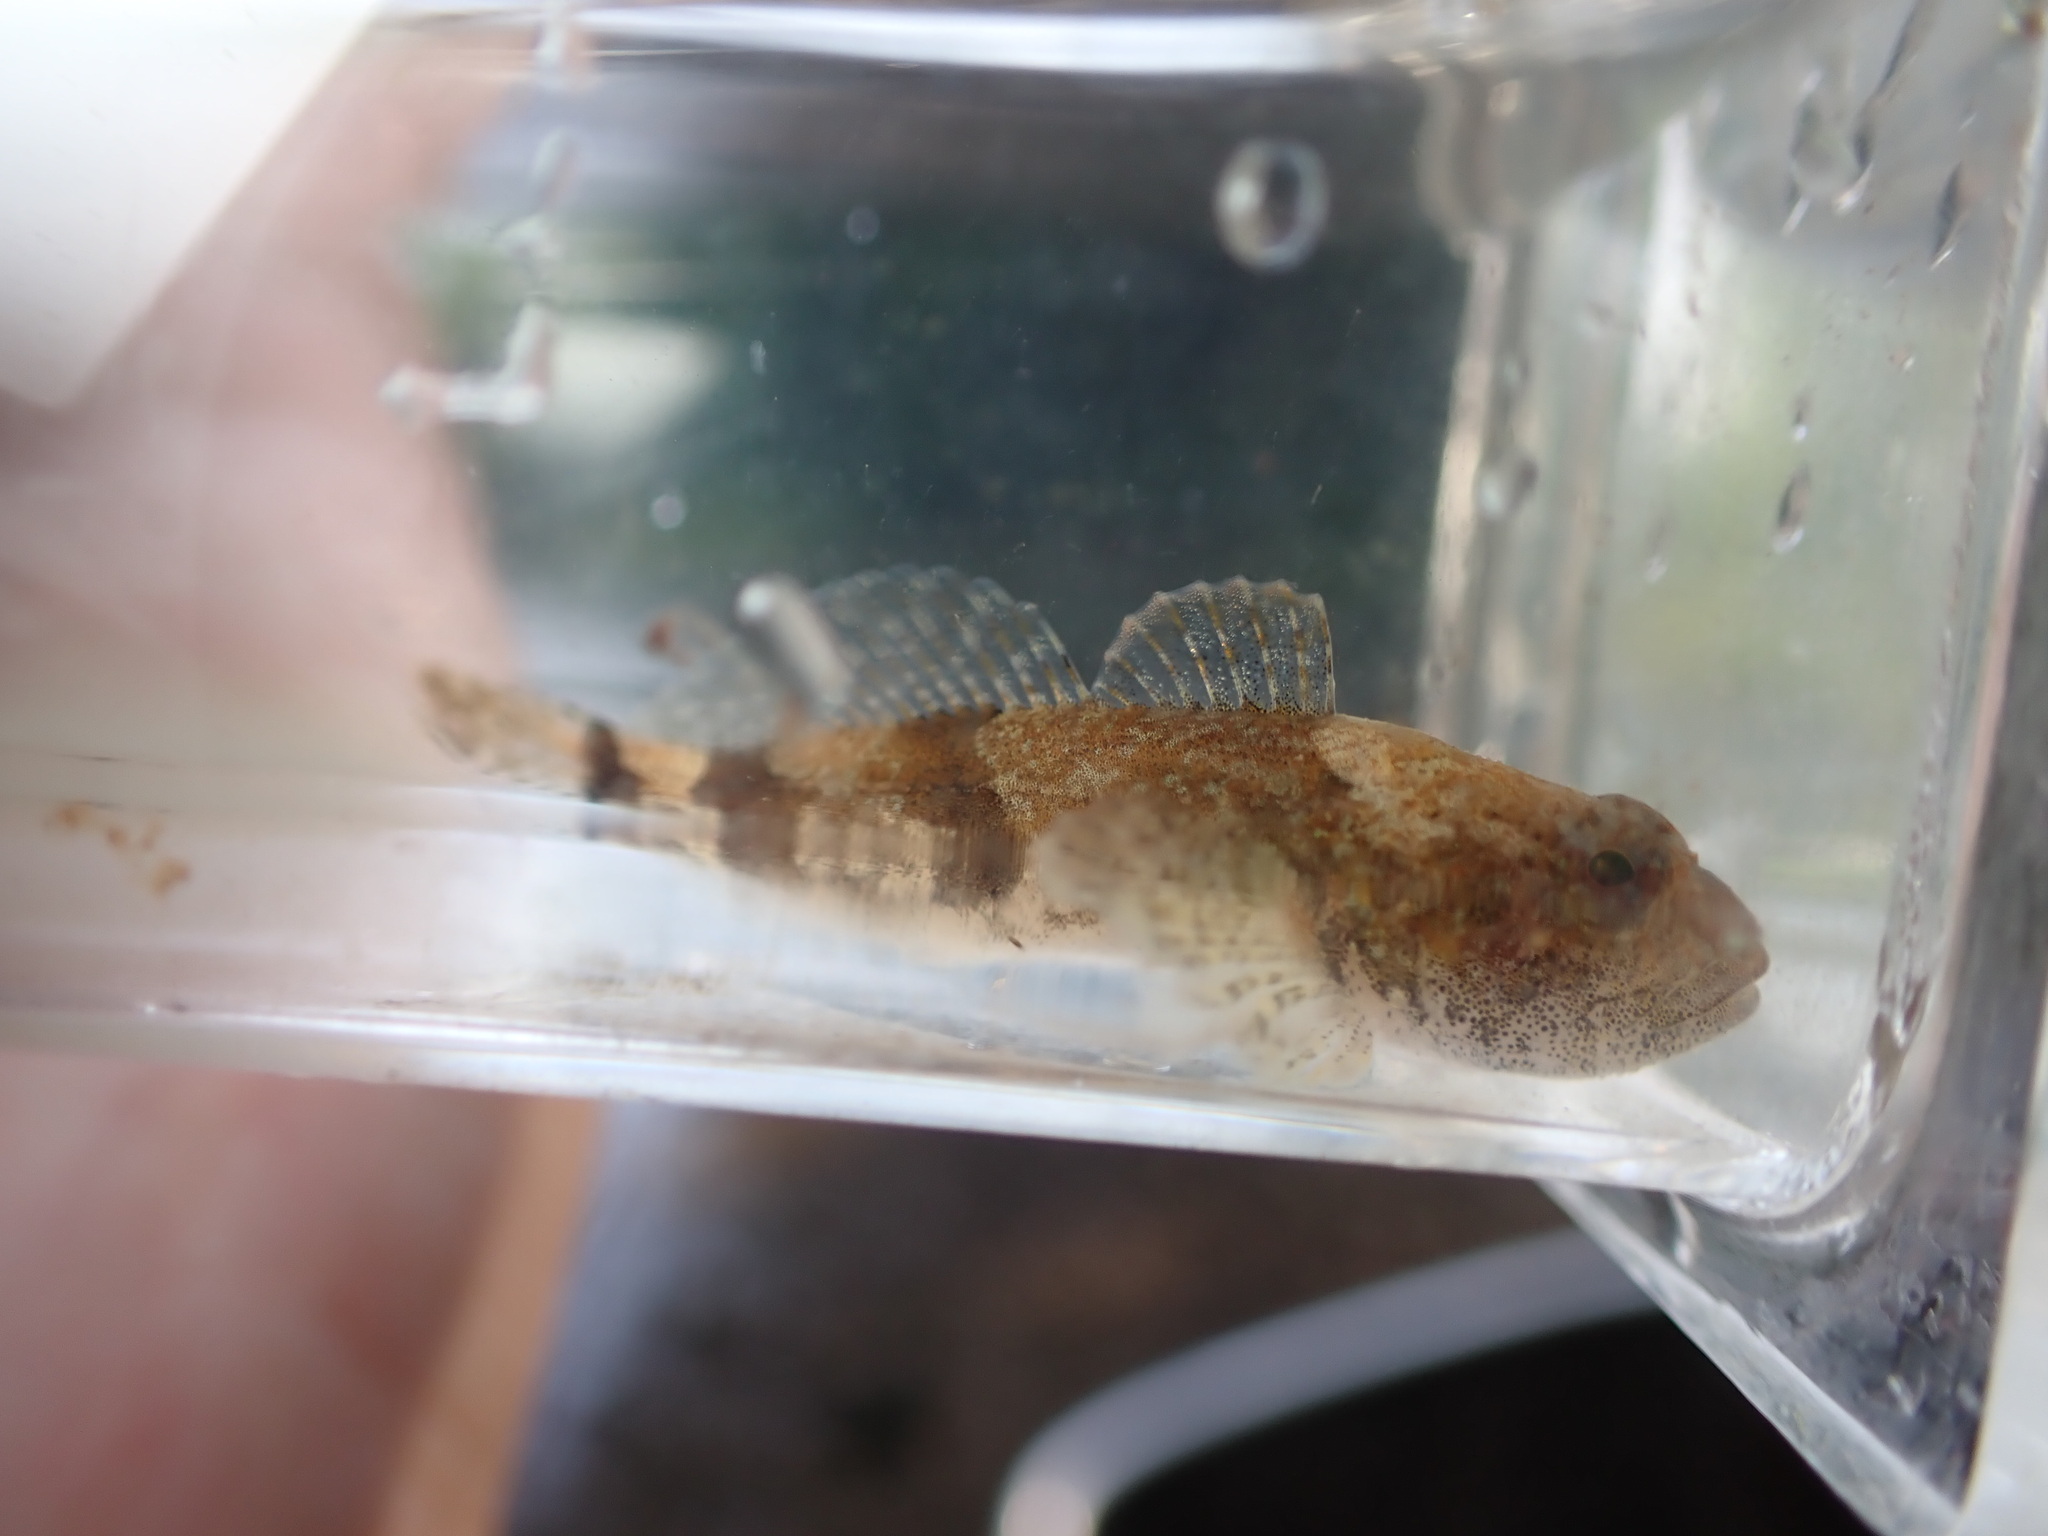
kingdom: Animalia
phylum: Chordata
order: Scorpaeniformes
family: Cottidae
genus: Cottus
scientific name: Cottus carolinae
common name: Banded sculpin
